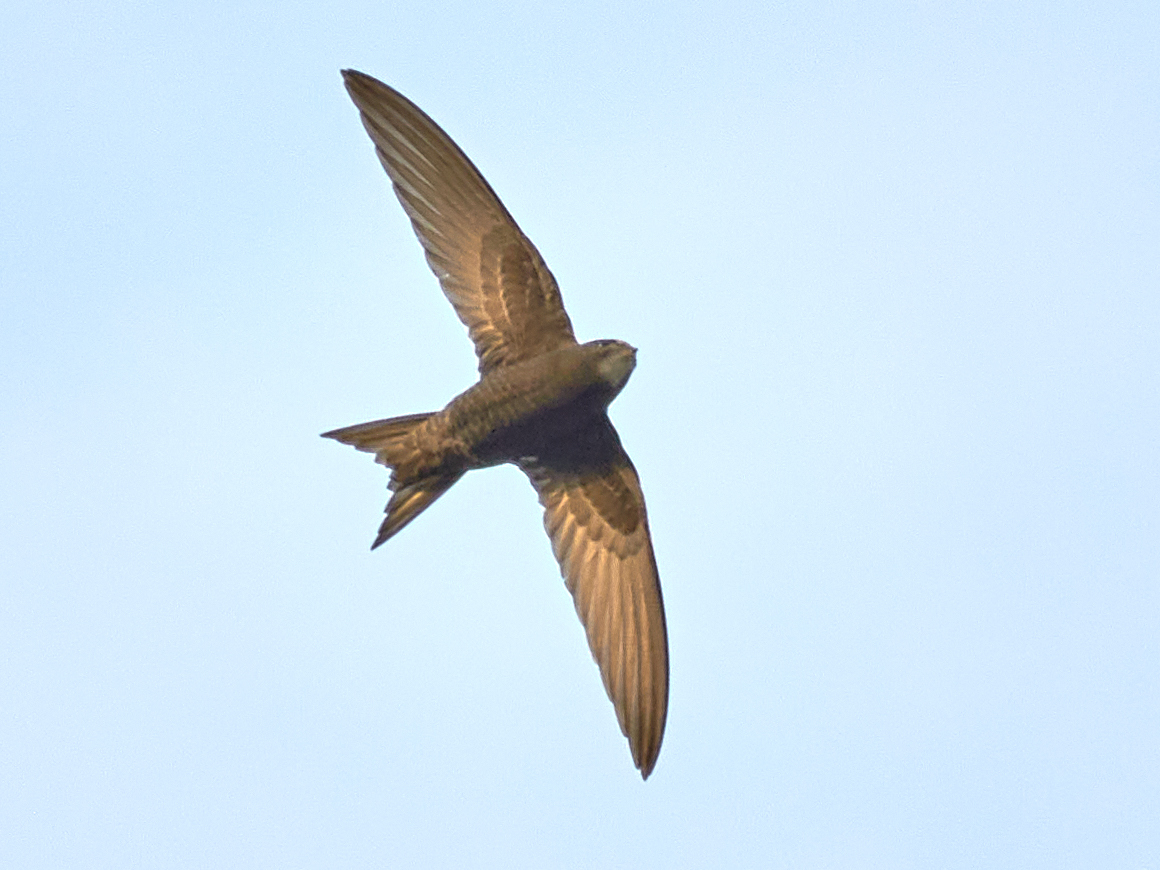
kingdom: Animalia
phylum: Chordata
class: Aves
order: Apodiformes
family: Apodidae
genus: Apus
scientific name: Apus apus
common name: Common swift
